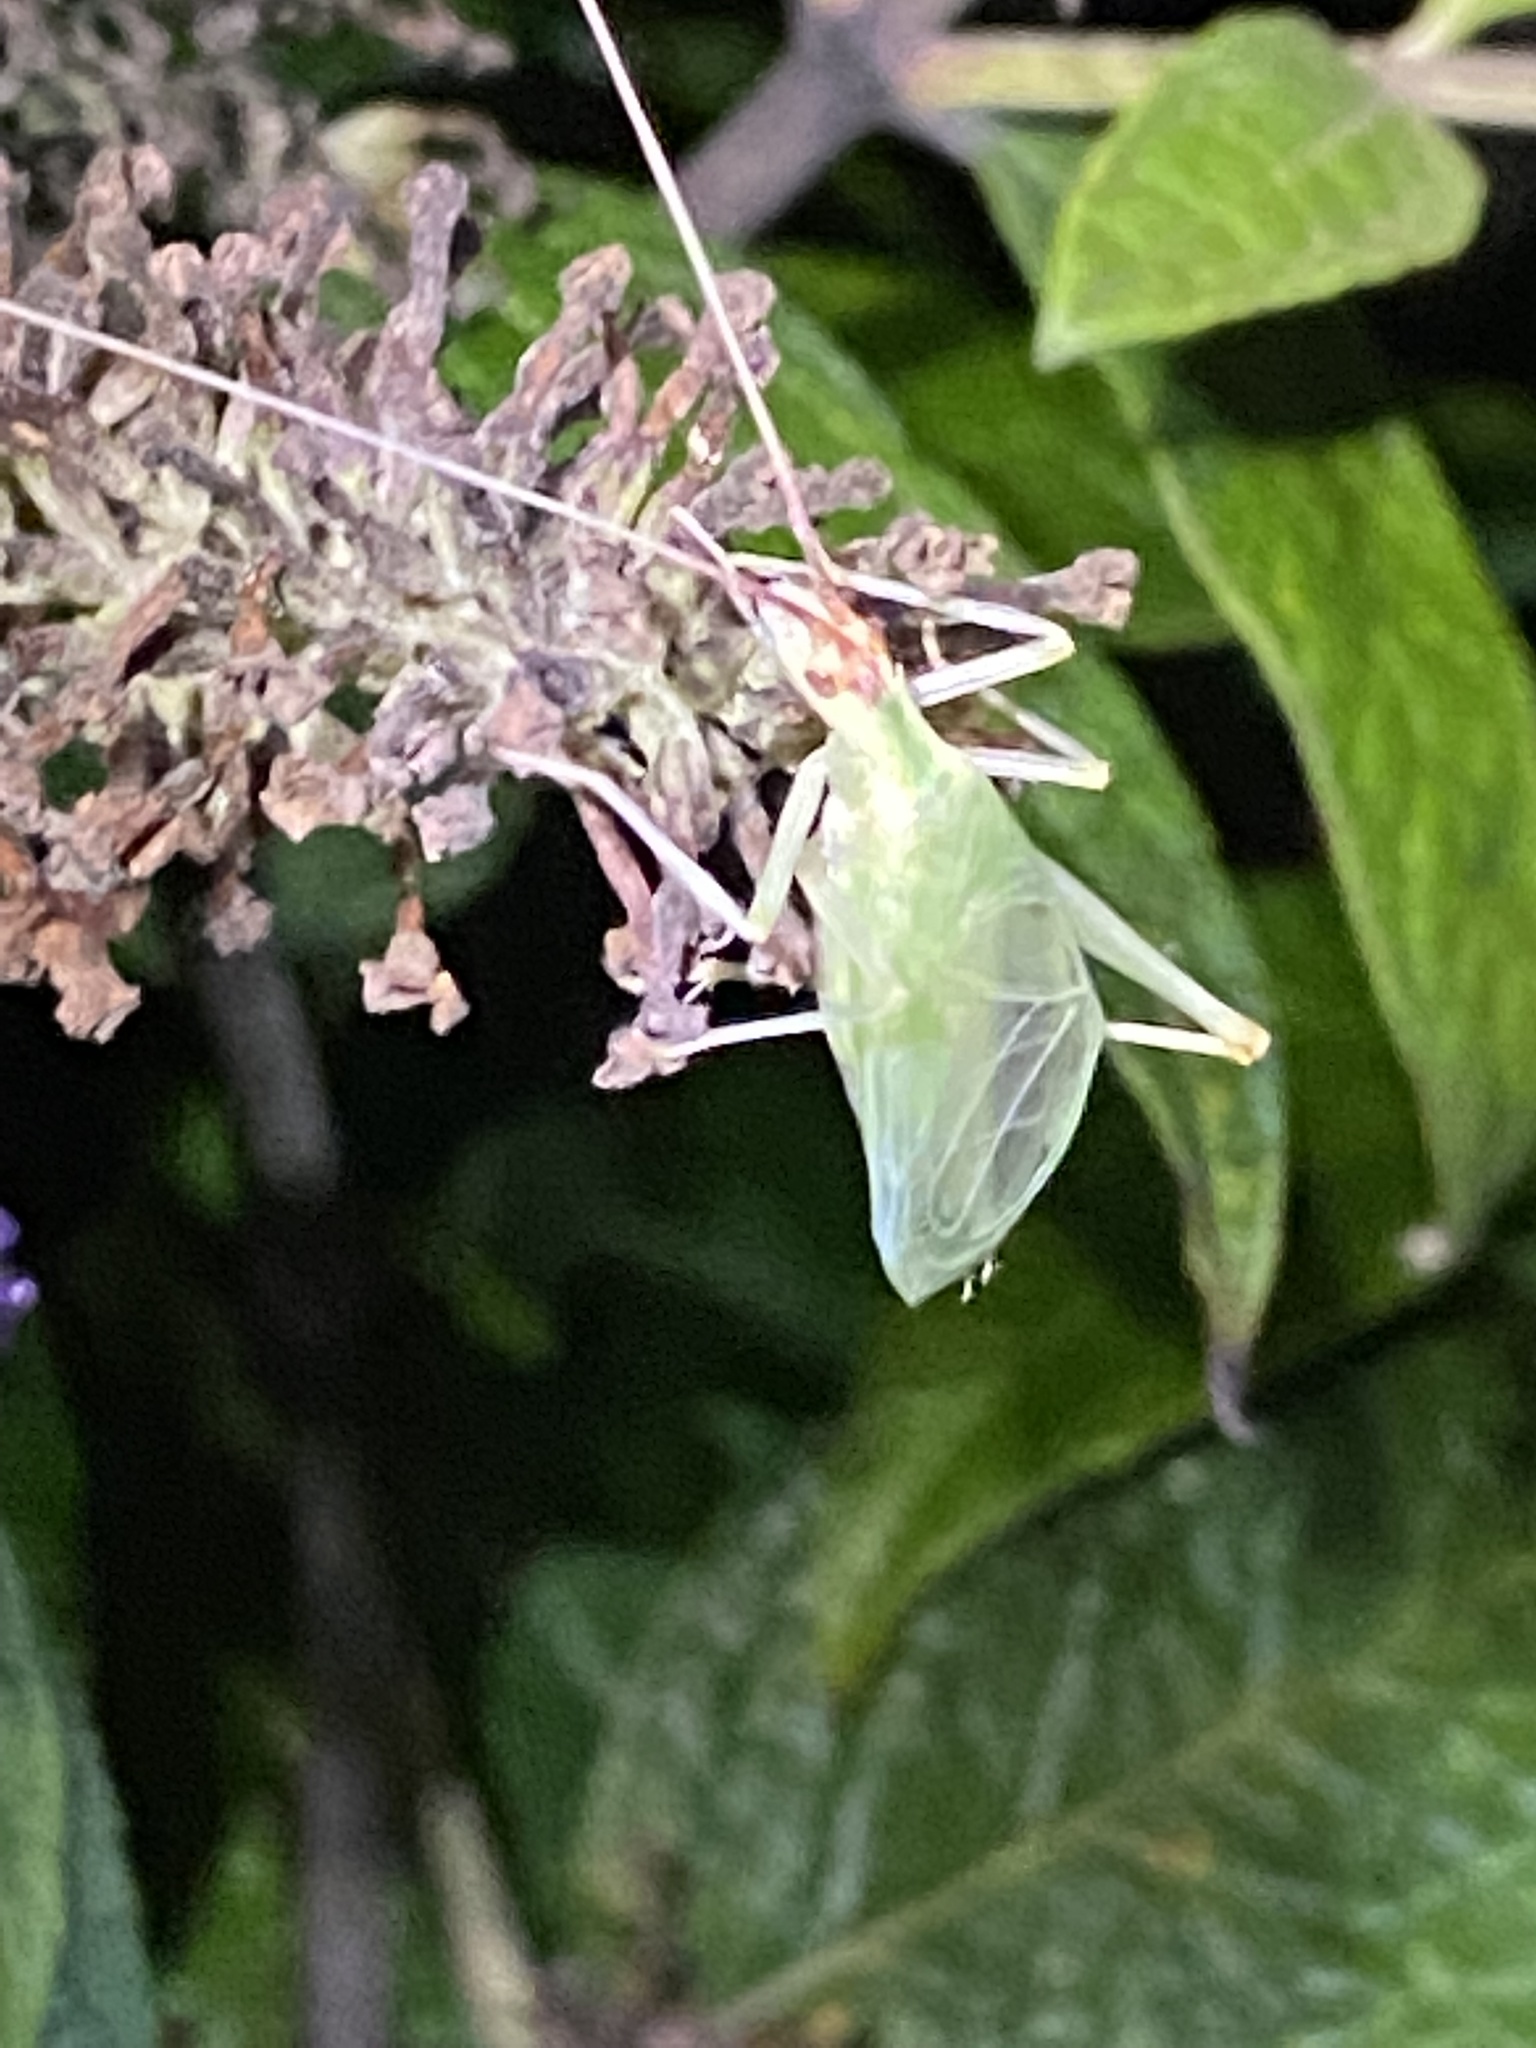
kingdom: Animalia
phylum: Arthropoda
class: Insecta
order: Orthoptera
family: Gryllidae
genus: Oecanthus
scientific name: Oecanthus latipennis
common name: Broad-winged tree cricket
